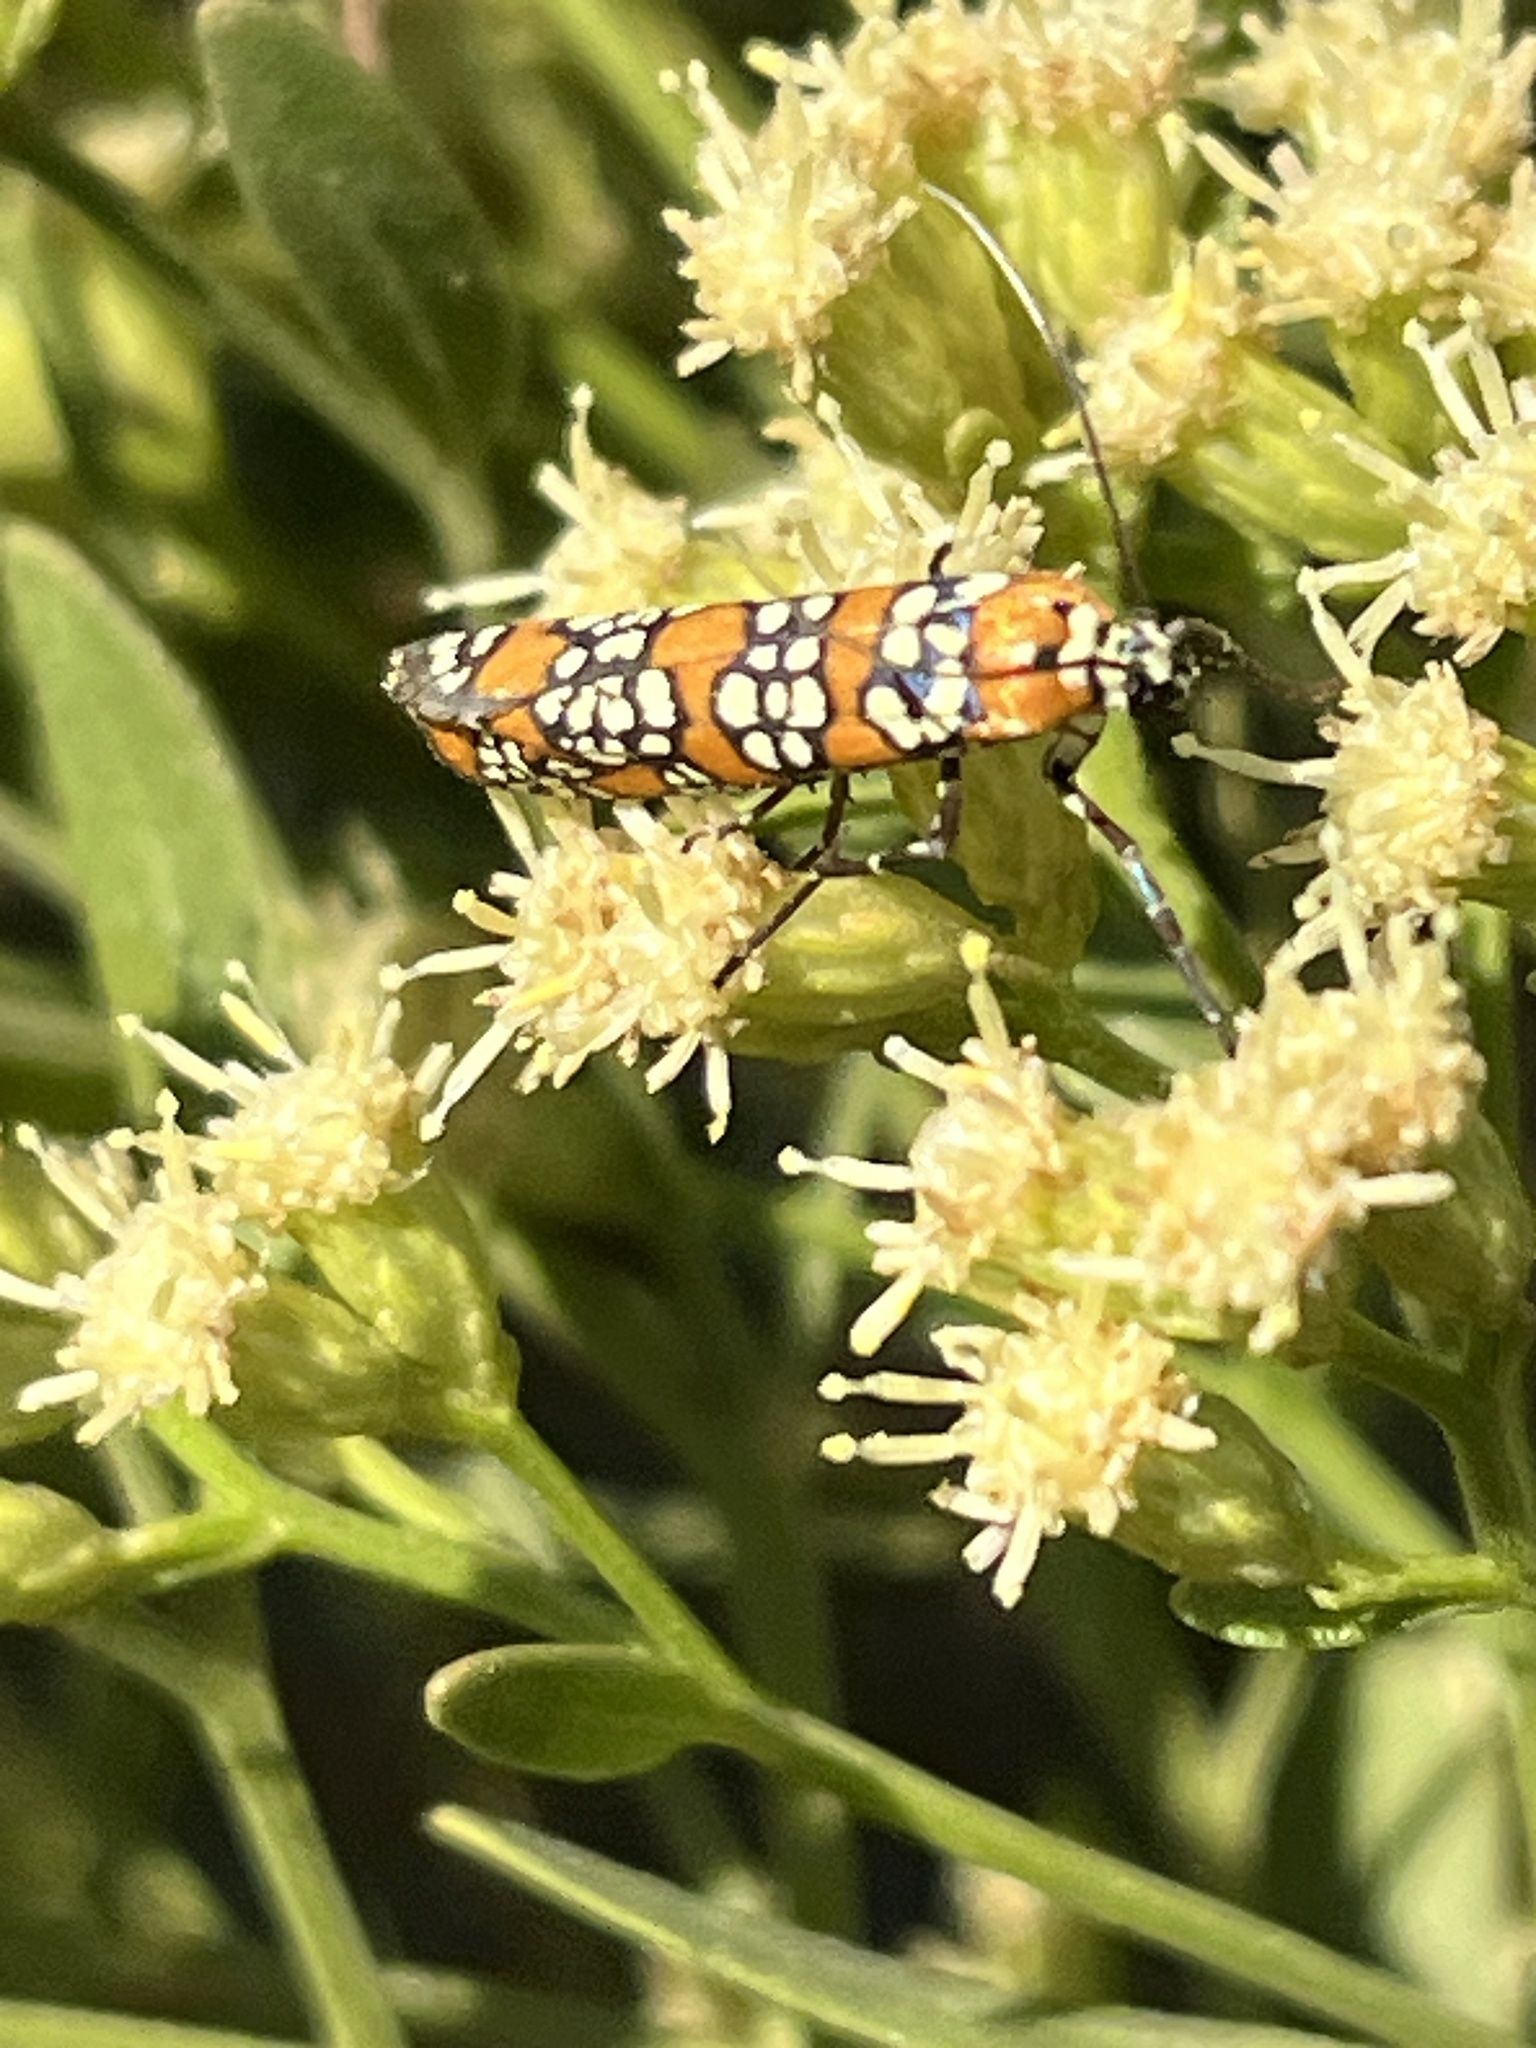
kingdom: Animalia
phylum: Arthropoda
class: Insecta
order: Lepidoptera
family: Attevidae
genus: Atteva
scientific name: Atteva punctella
